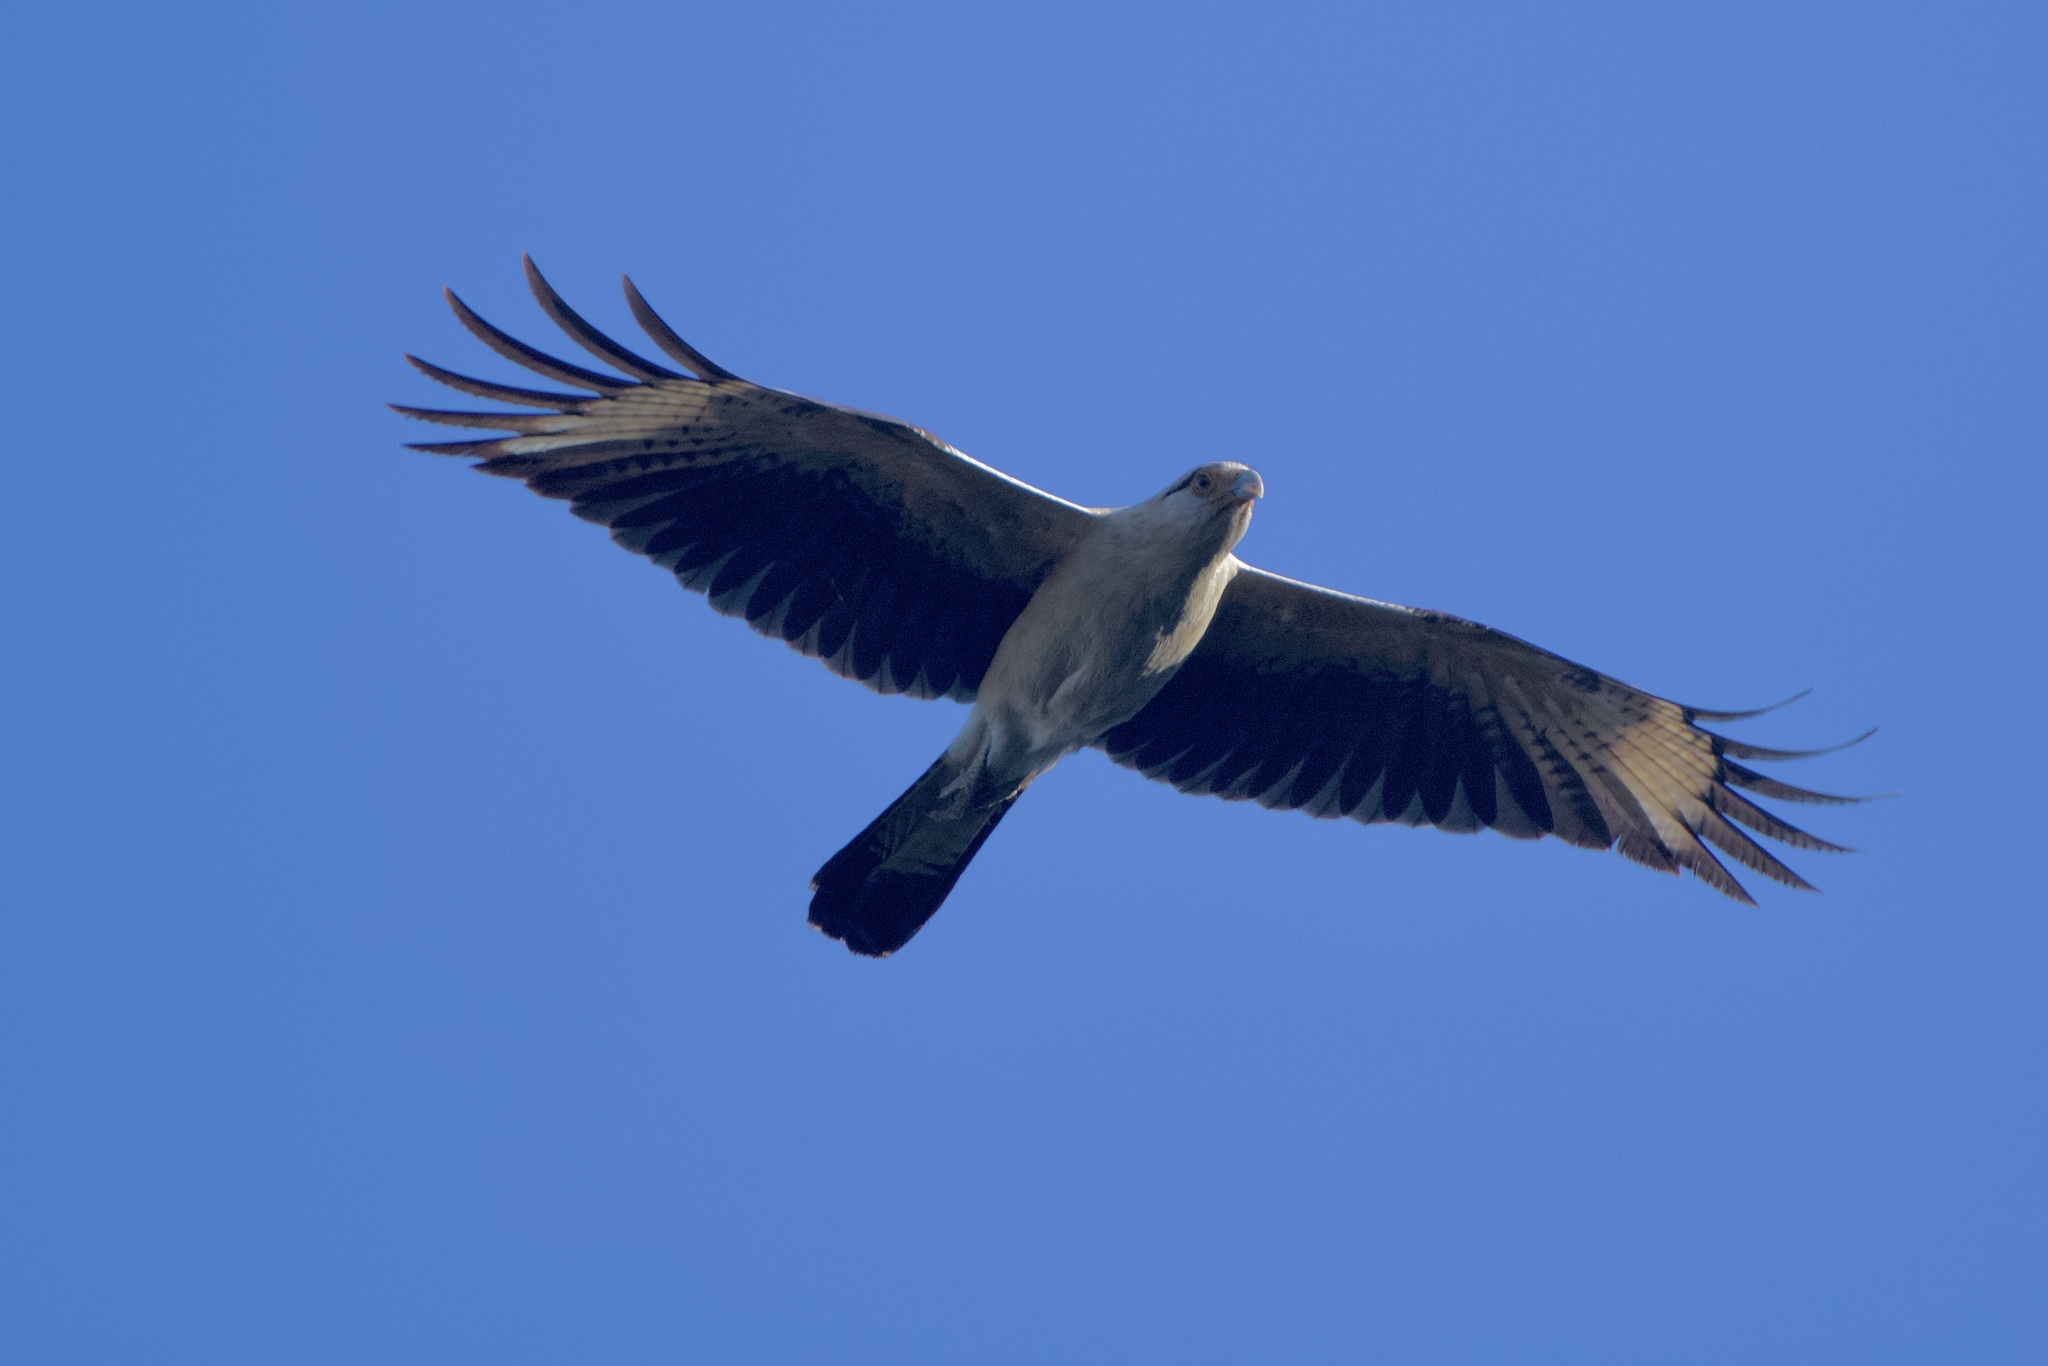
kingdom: Animalia
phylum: Chordata
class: Aves
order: Falconiformes
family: Falconidae
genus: Daptrius
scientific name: Daptrius
